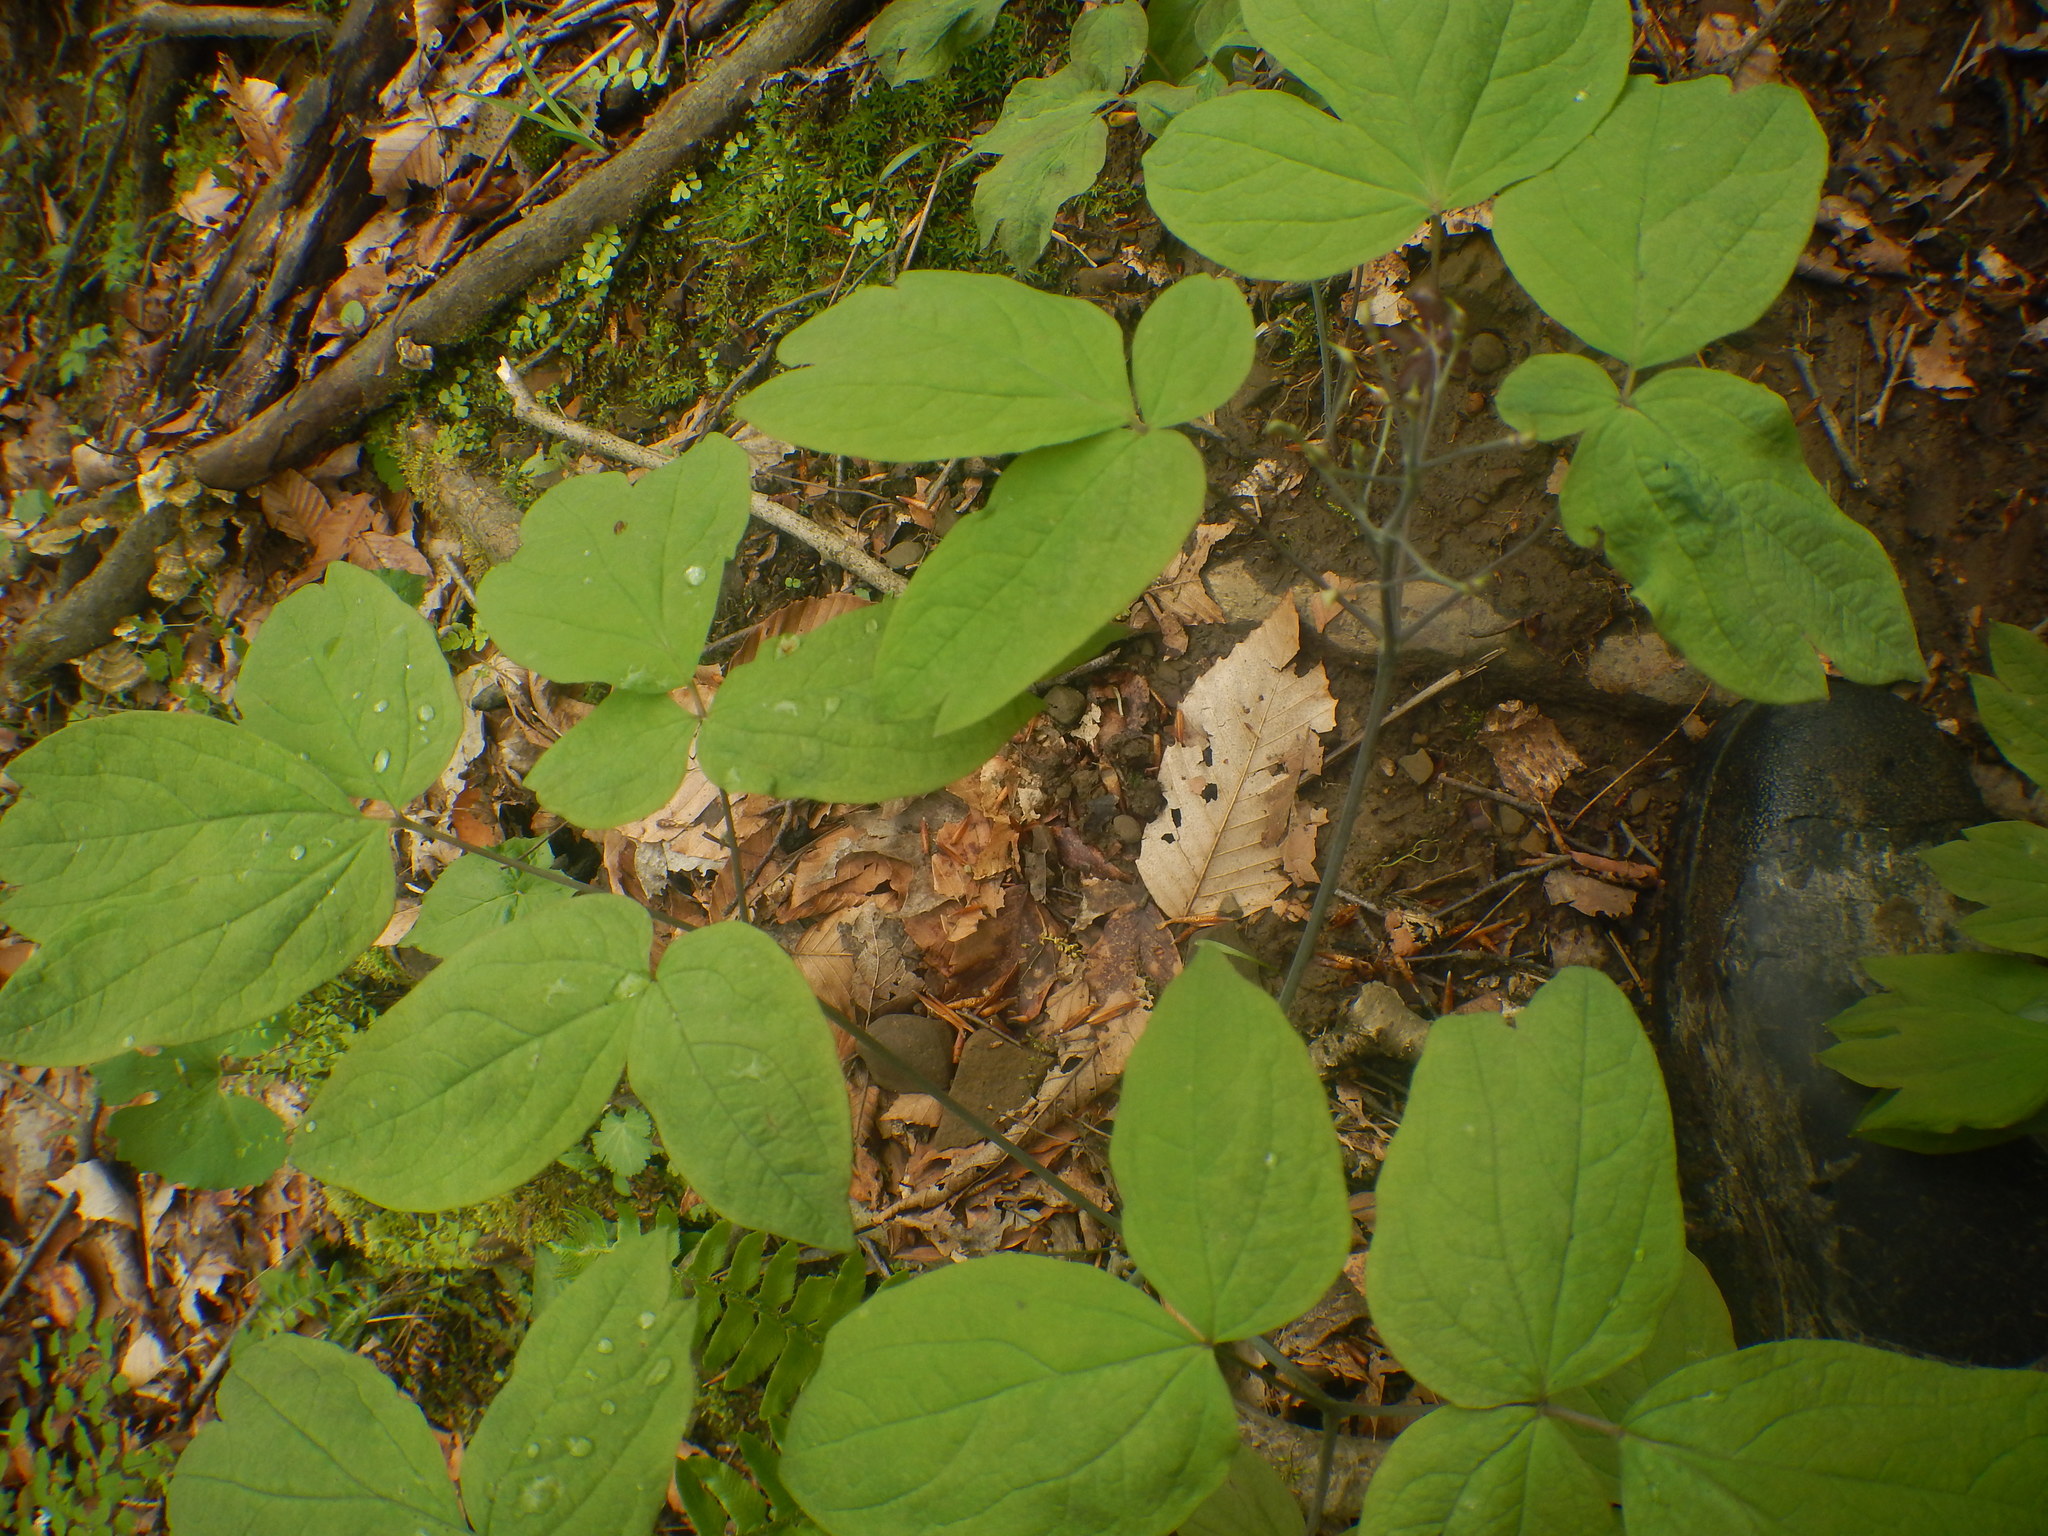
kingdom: Plantae
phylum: Tracheophyta
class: Magnoliopsida
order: Ranunculales
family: Berberidaceae
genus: Caulophyllum
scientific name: Caulophyllum thalictroides
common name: Blue cohosh
